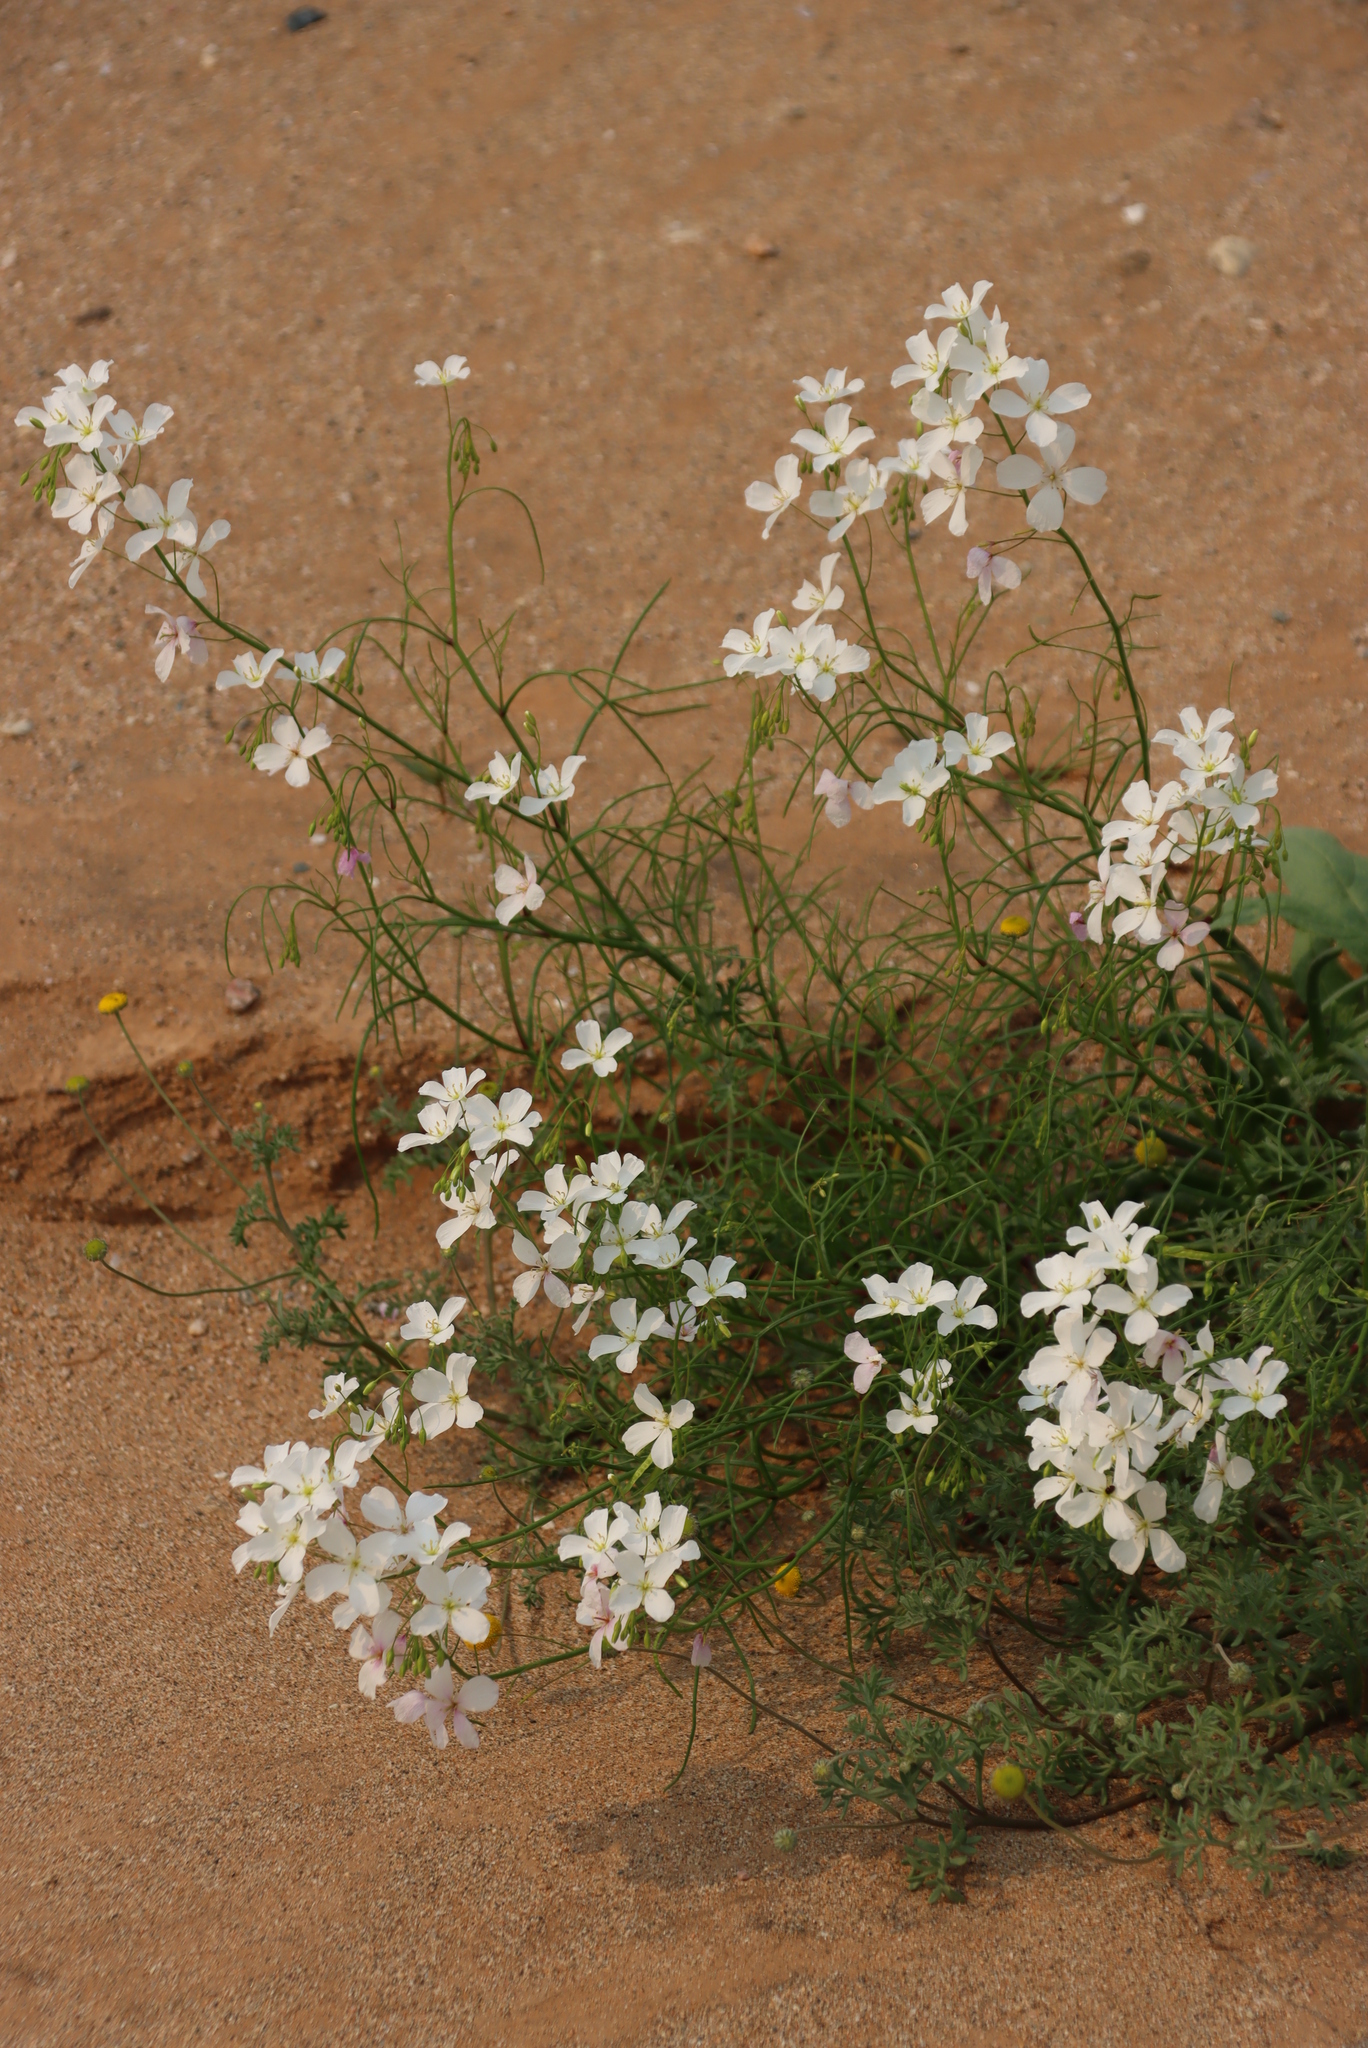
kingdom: Plantae
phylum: Tracheophyta
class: Magnoliopsida
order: Brassicales
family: Brassicaceae
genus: Heliophila
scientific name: Heliophila variabilis
